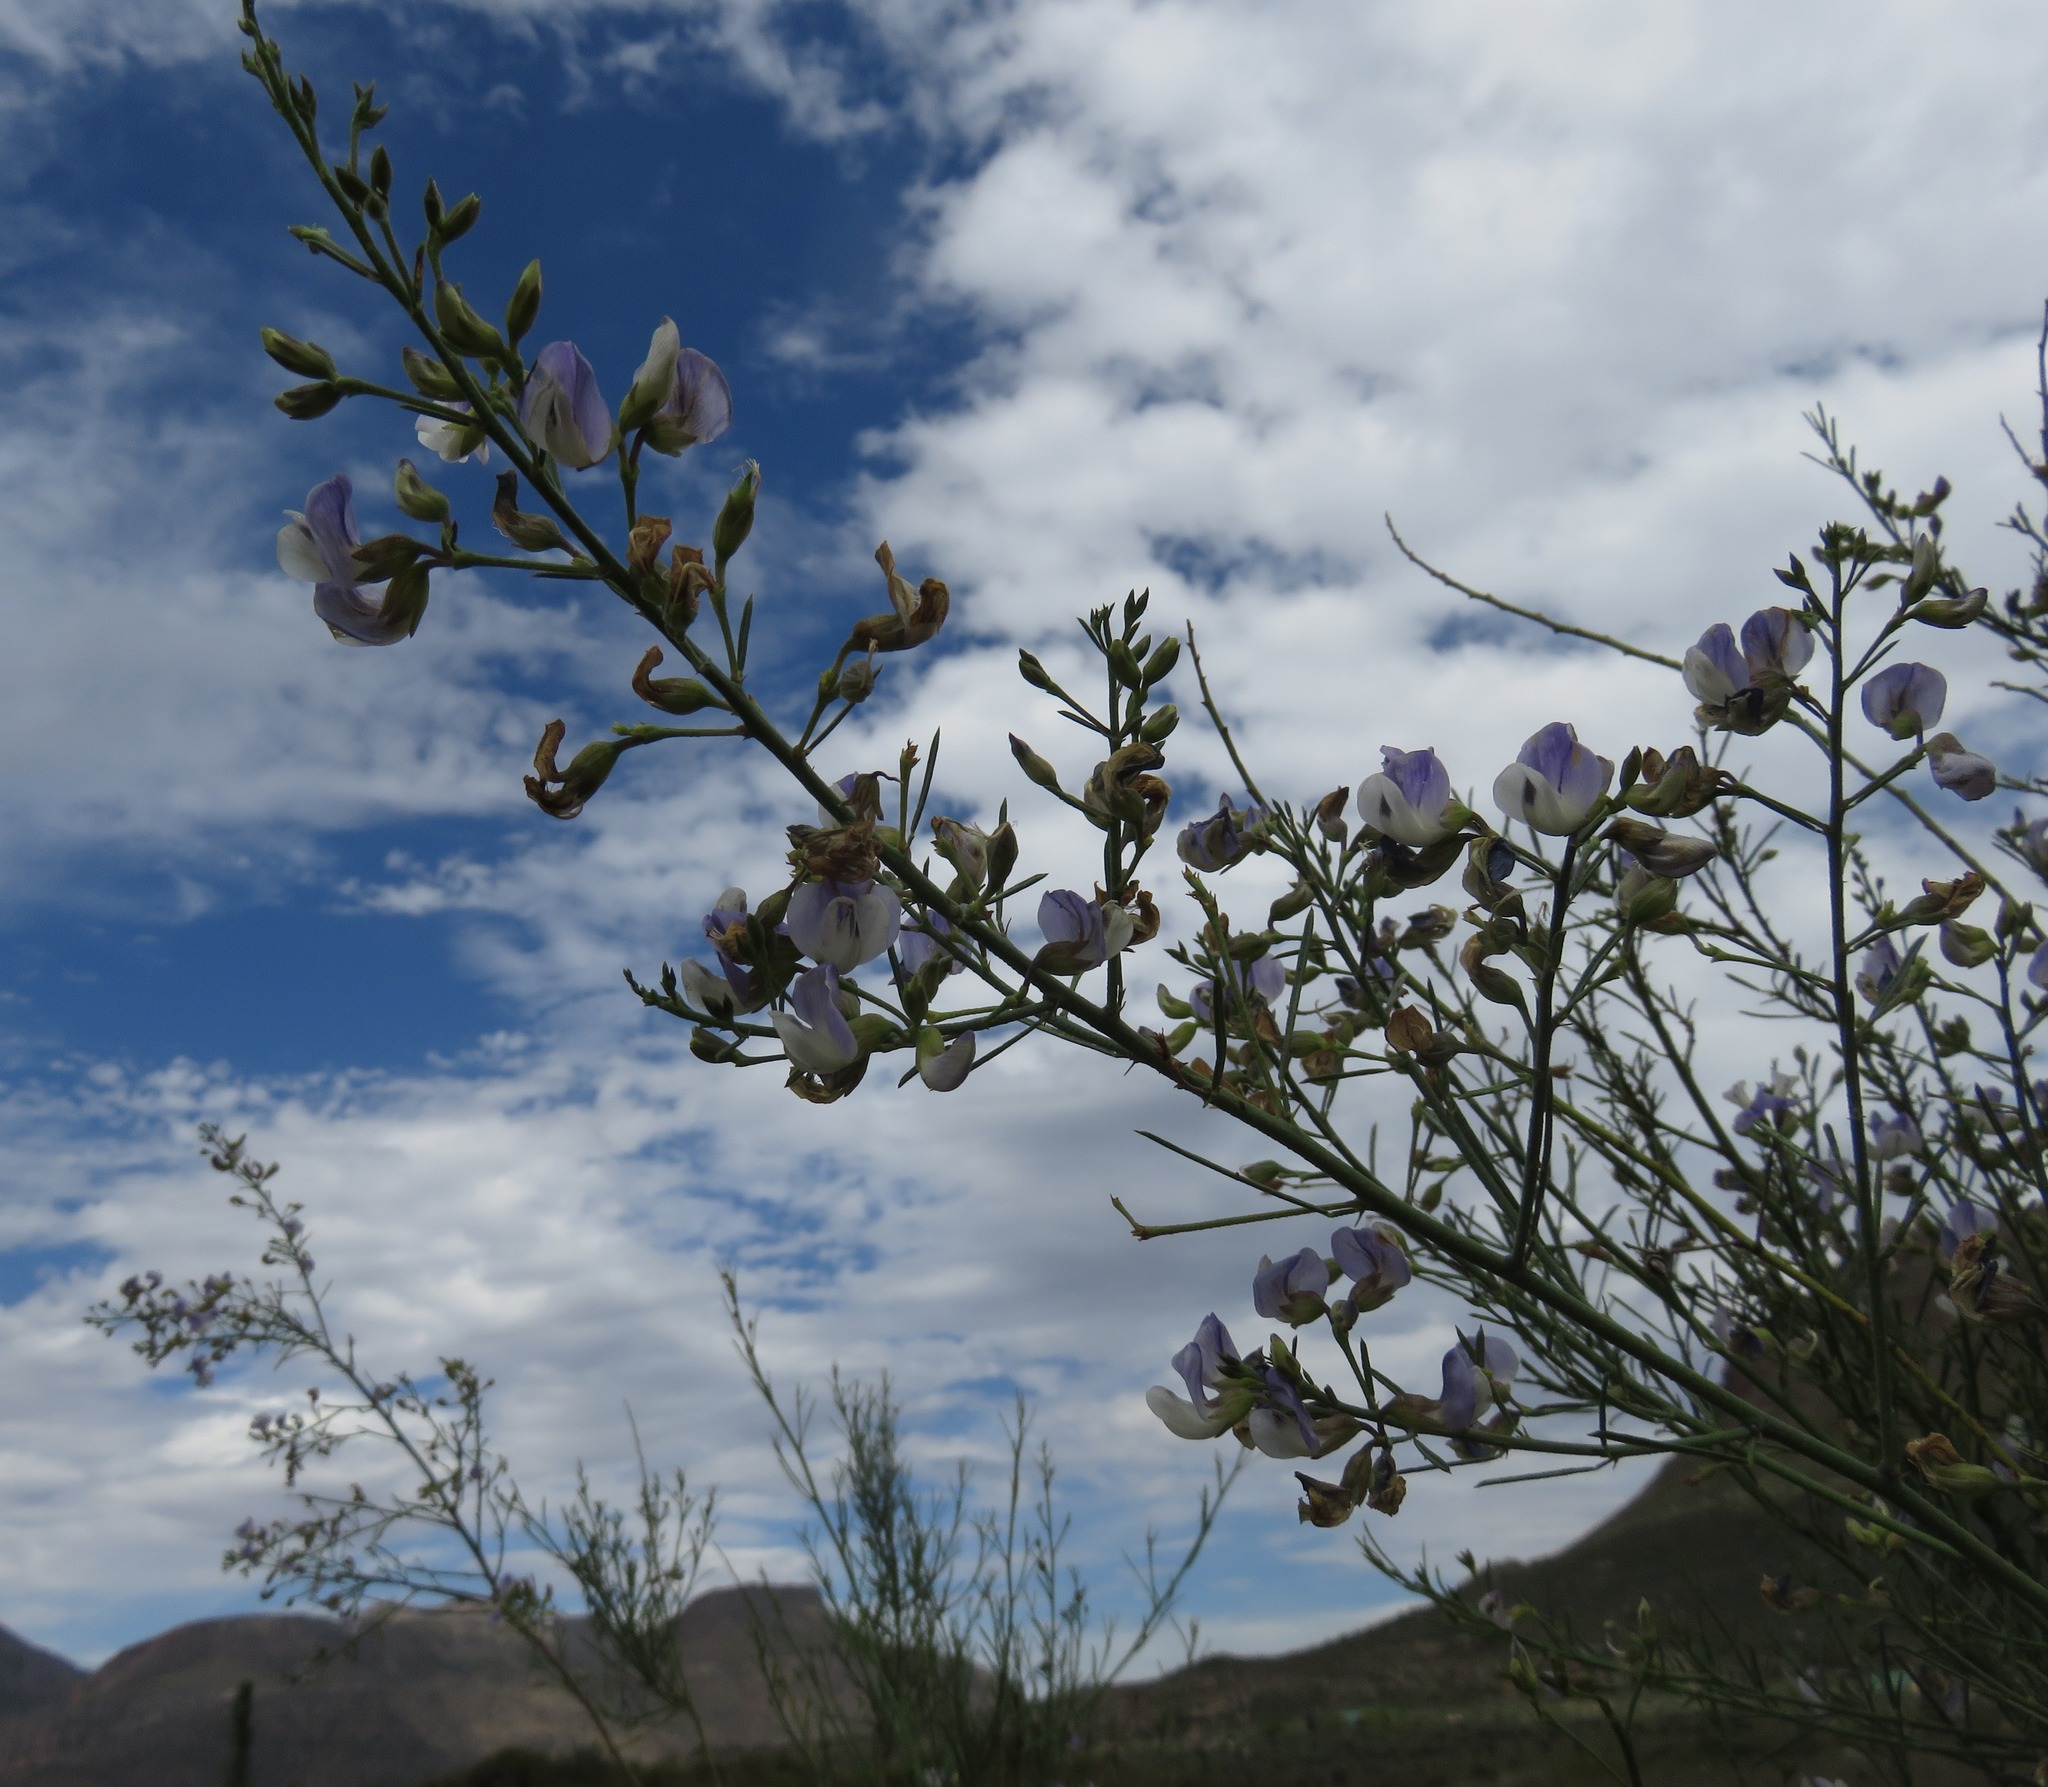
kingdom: Plantae
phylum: Tracheophyta
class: Magnoliopsida
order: Fabales
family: Fabaceae
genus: Psoralea
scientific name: Psoralea verrucosa
